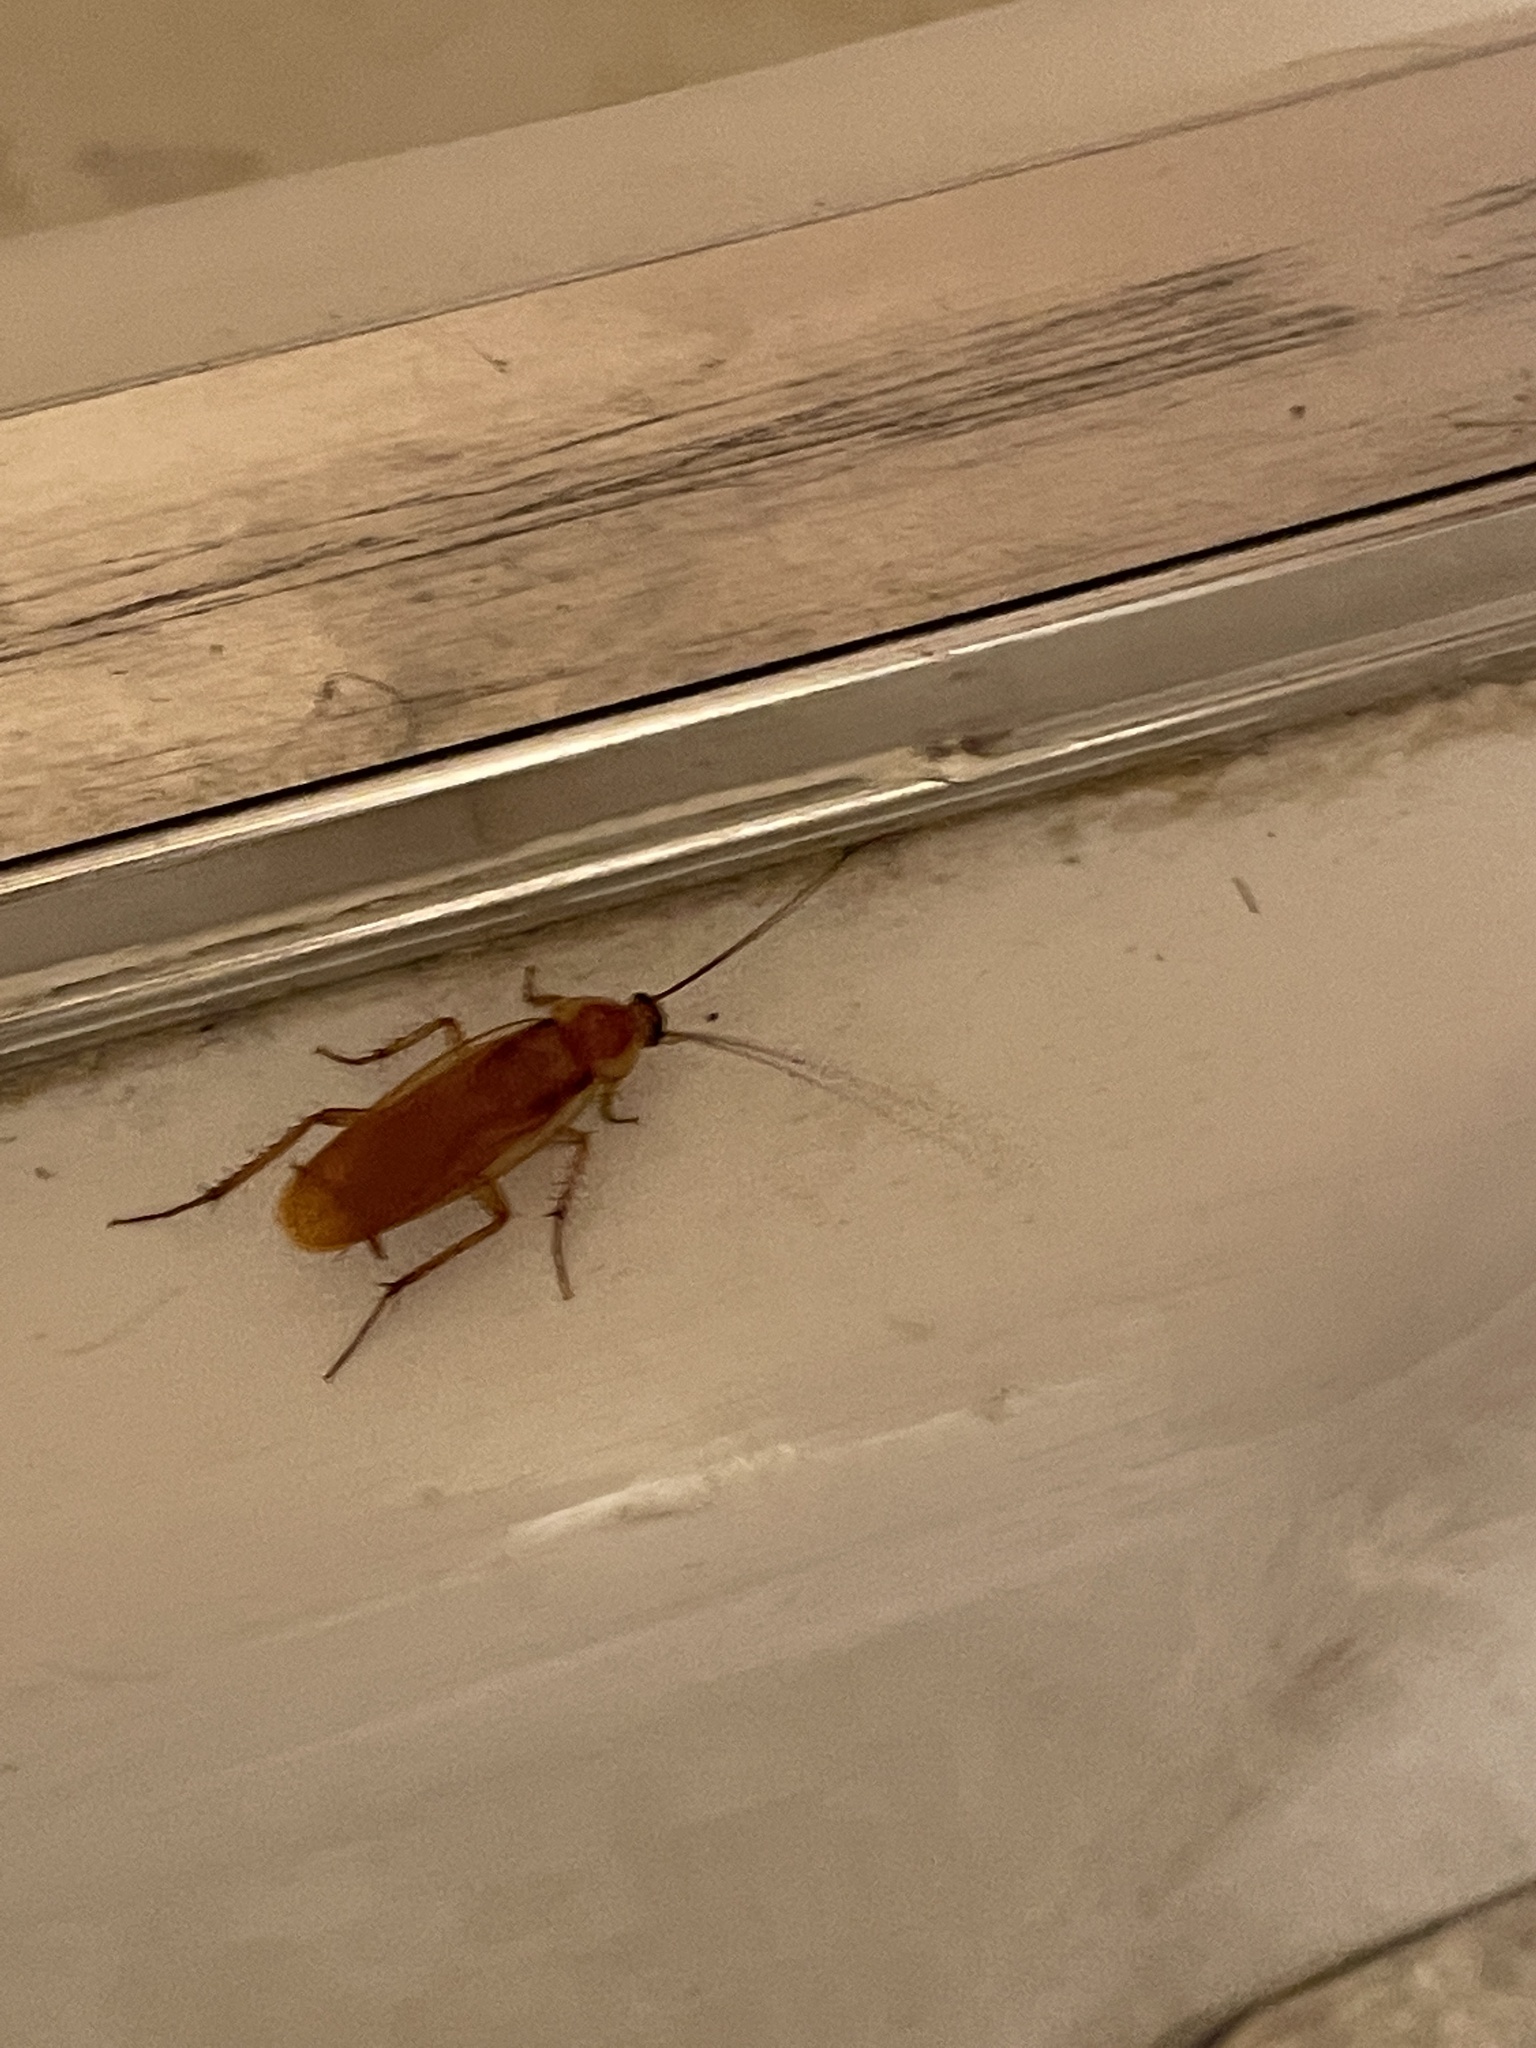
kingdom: Animalia
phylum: Arthropoda
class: Insecta
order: Blattodea
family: Blattidae
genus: Periplaneta
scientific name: Periplaneta lateralis
